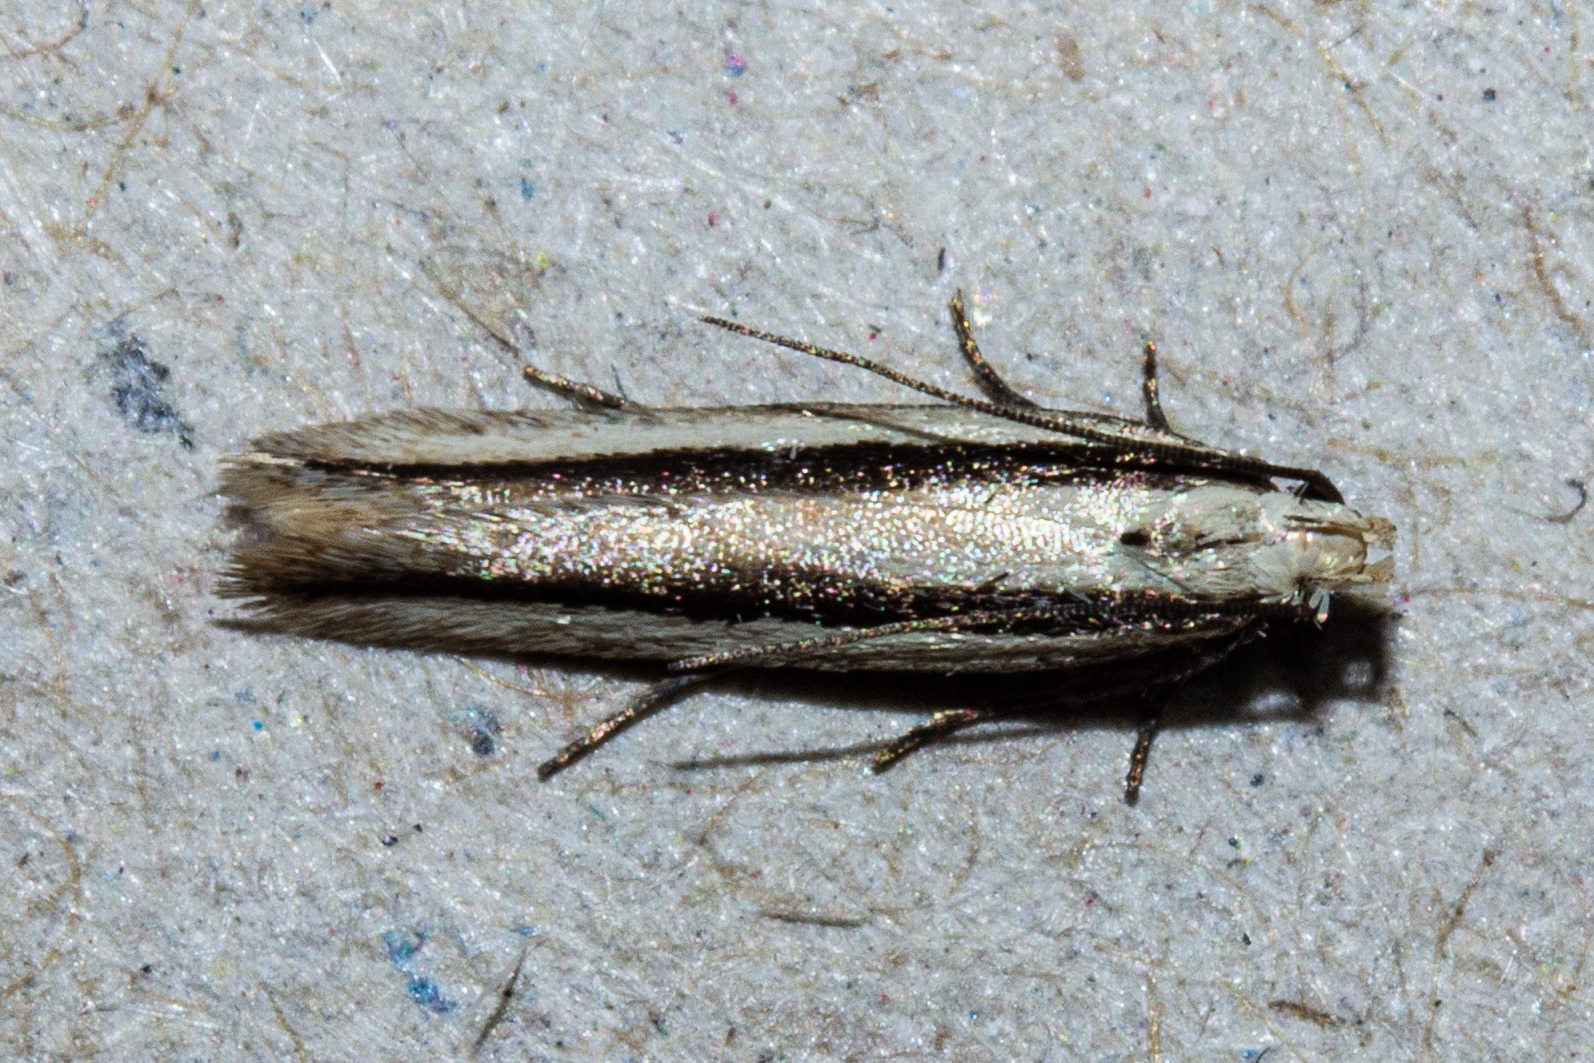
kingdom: Animalia
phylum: Arthropoda
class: Insecta
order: Lepidoptera
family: Gelechiidae
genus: Kiwaia
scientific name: Kiwaia monophragma
